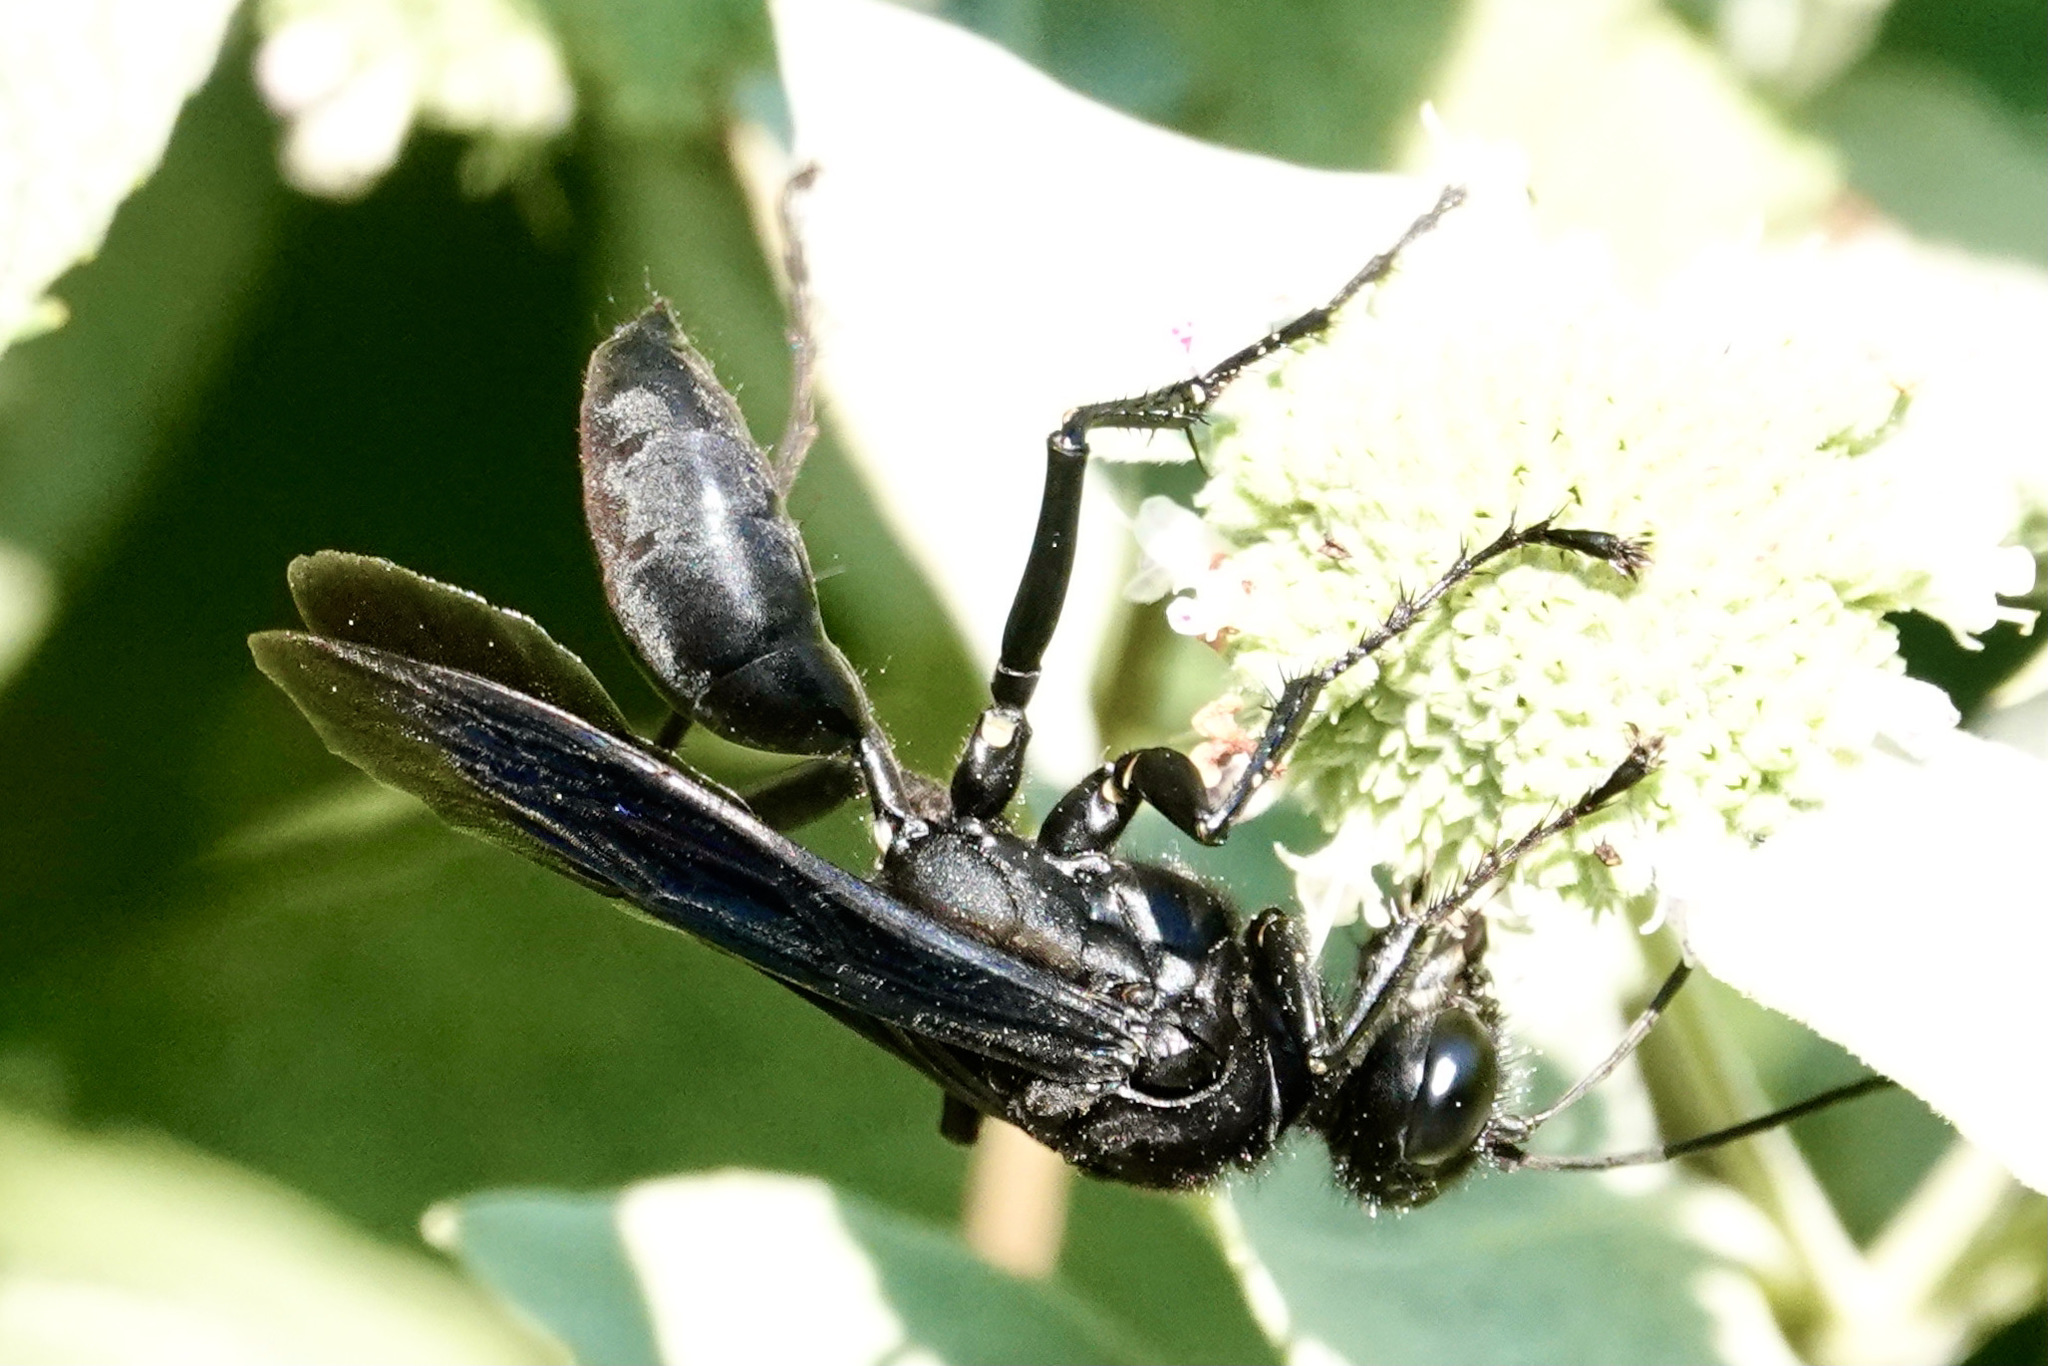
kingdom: Animalia
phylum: Arthropoda
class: Insecta
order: Hymenoptera
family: Sphecidae
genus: Sphex
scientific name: Sphex pensylvanicus
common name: Great black digger wasp
